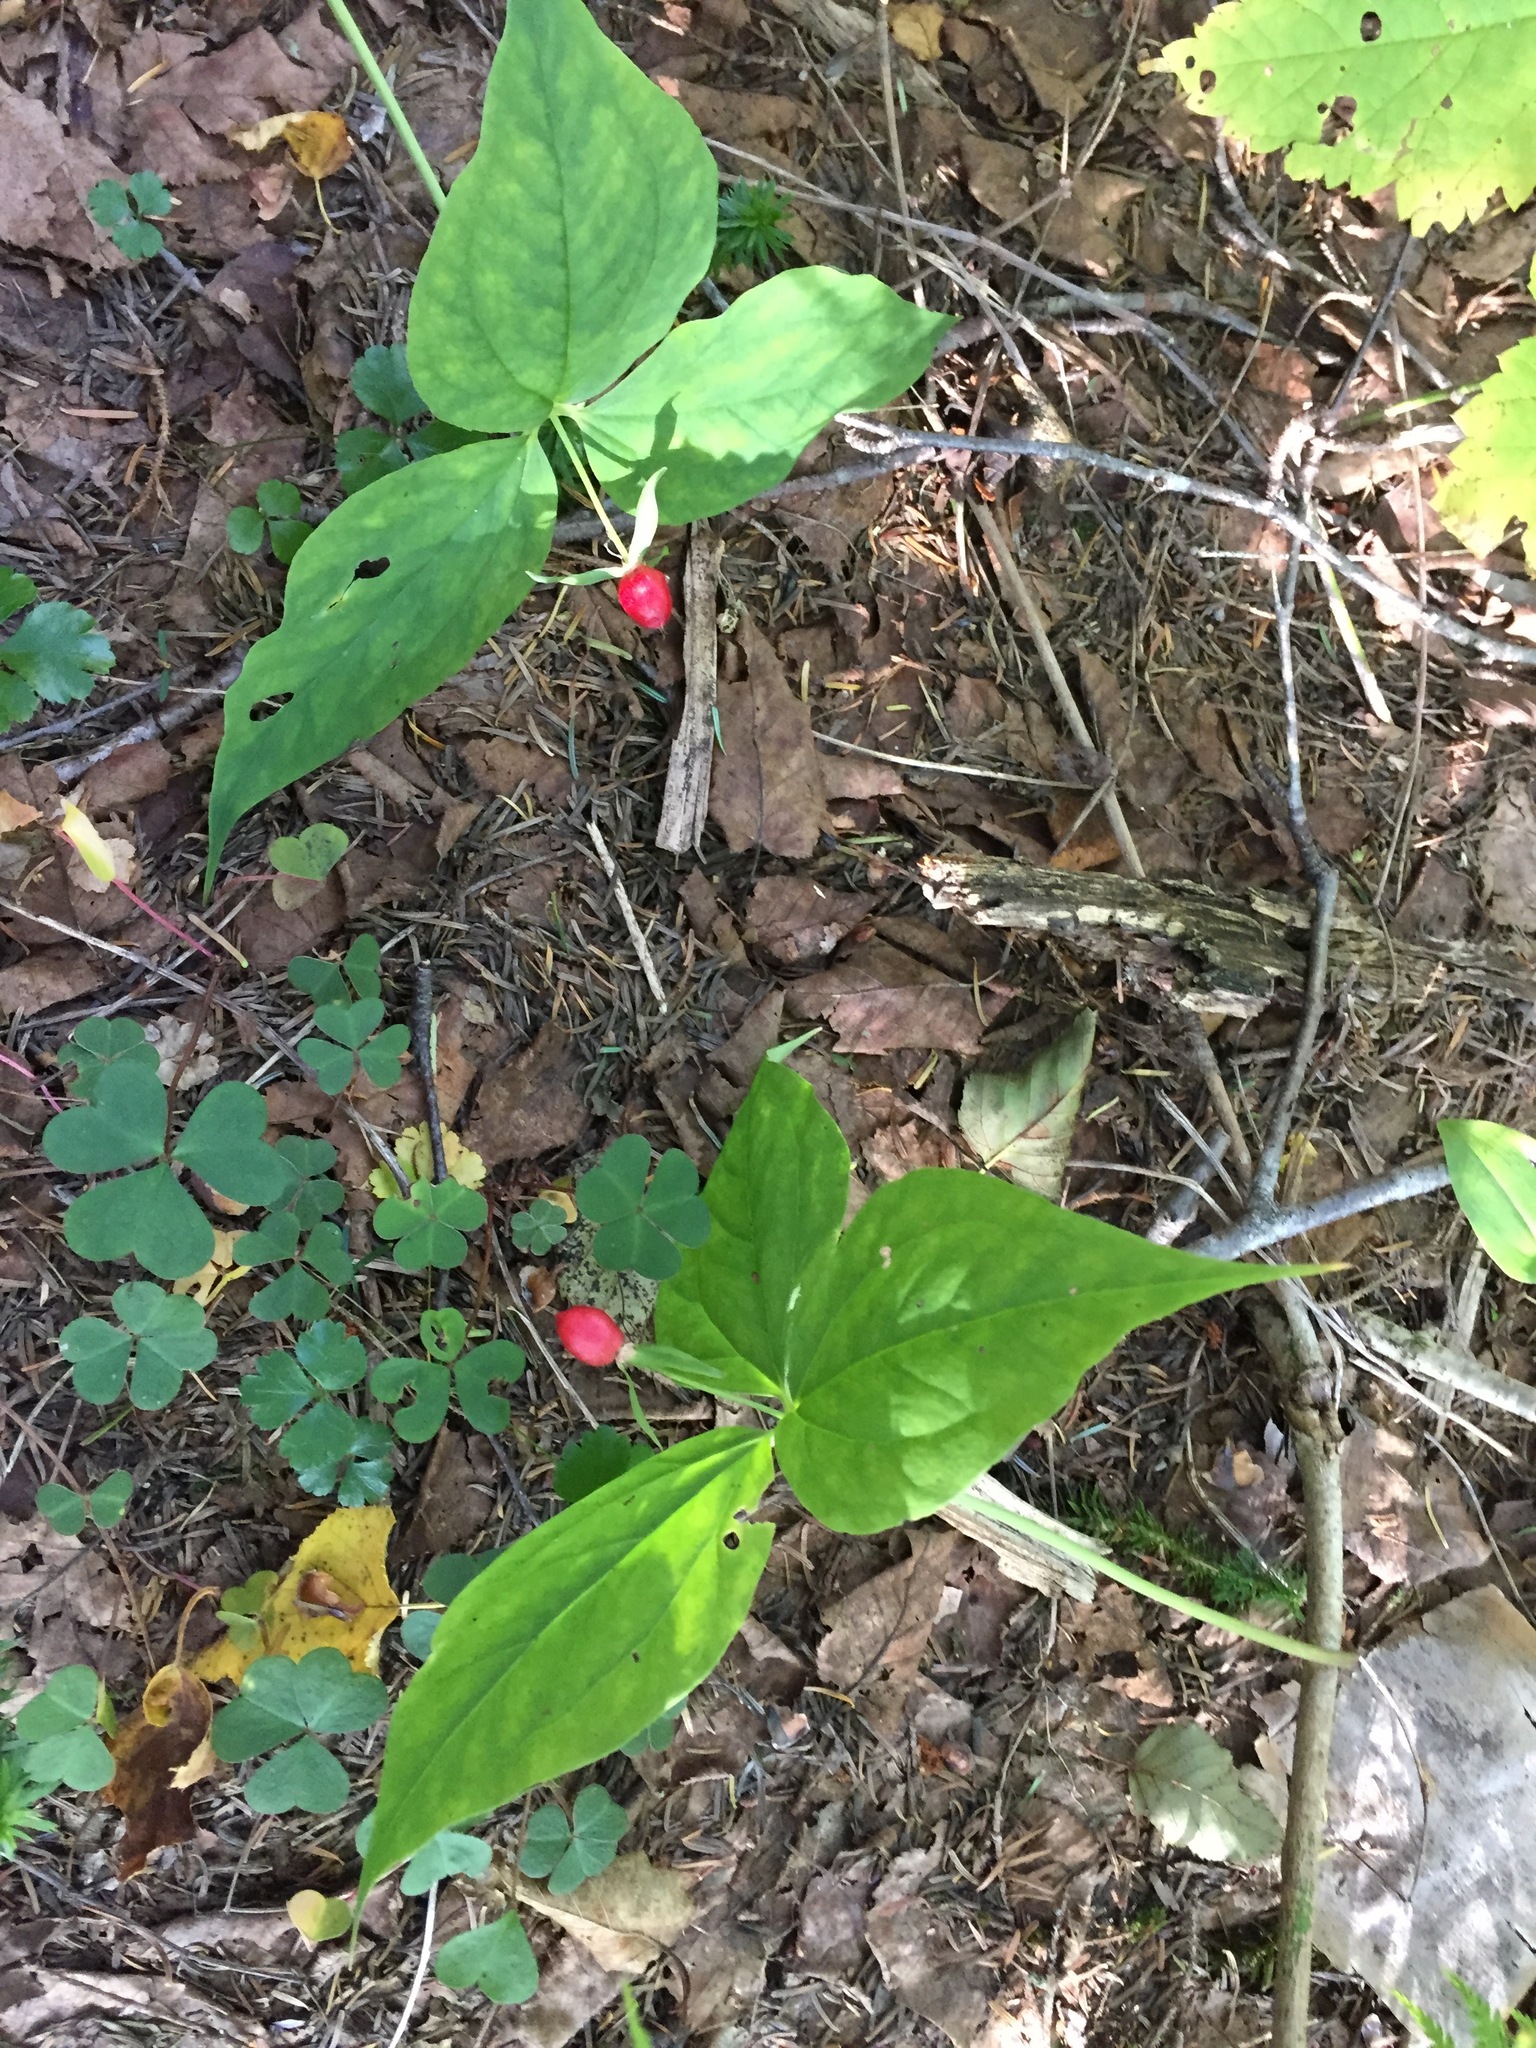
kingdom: Plantae
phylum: Tracheophyta
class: Liliopsida
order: Liliales
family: Melanthiaceae
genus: Trillium
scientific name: Trillium undulatum
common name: Paint trillium
